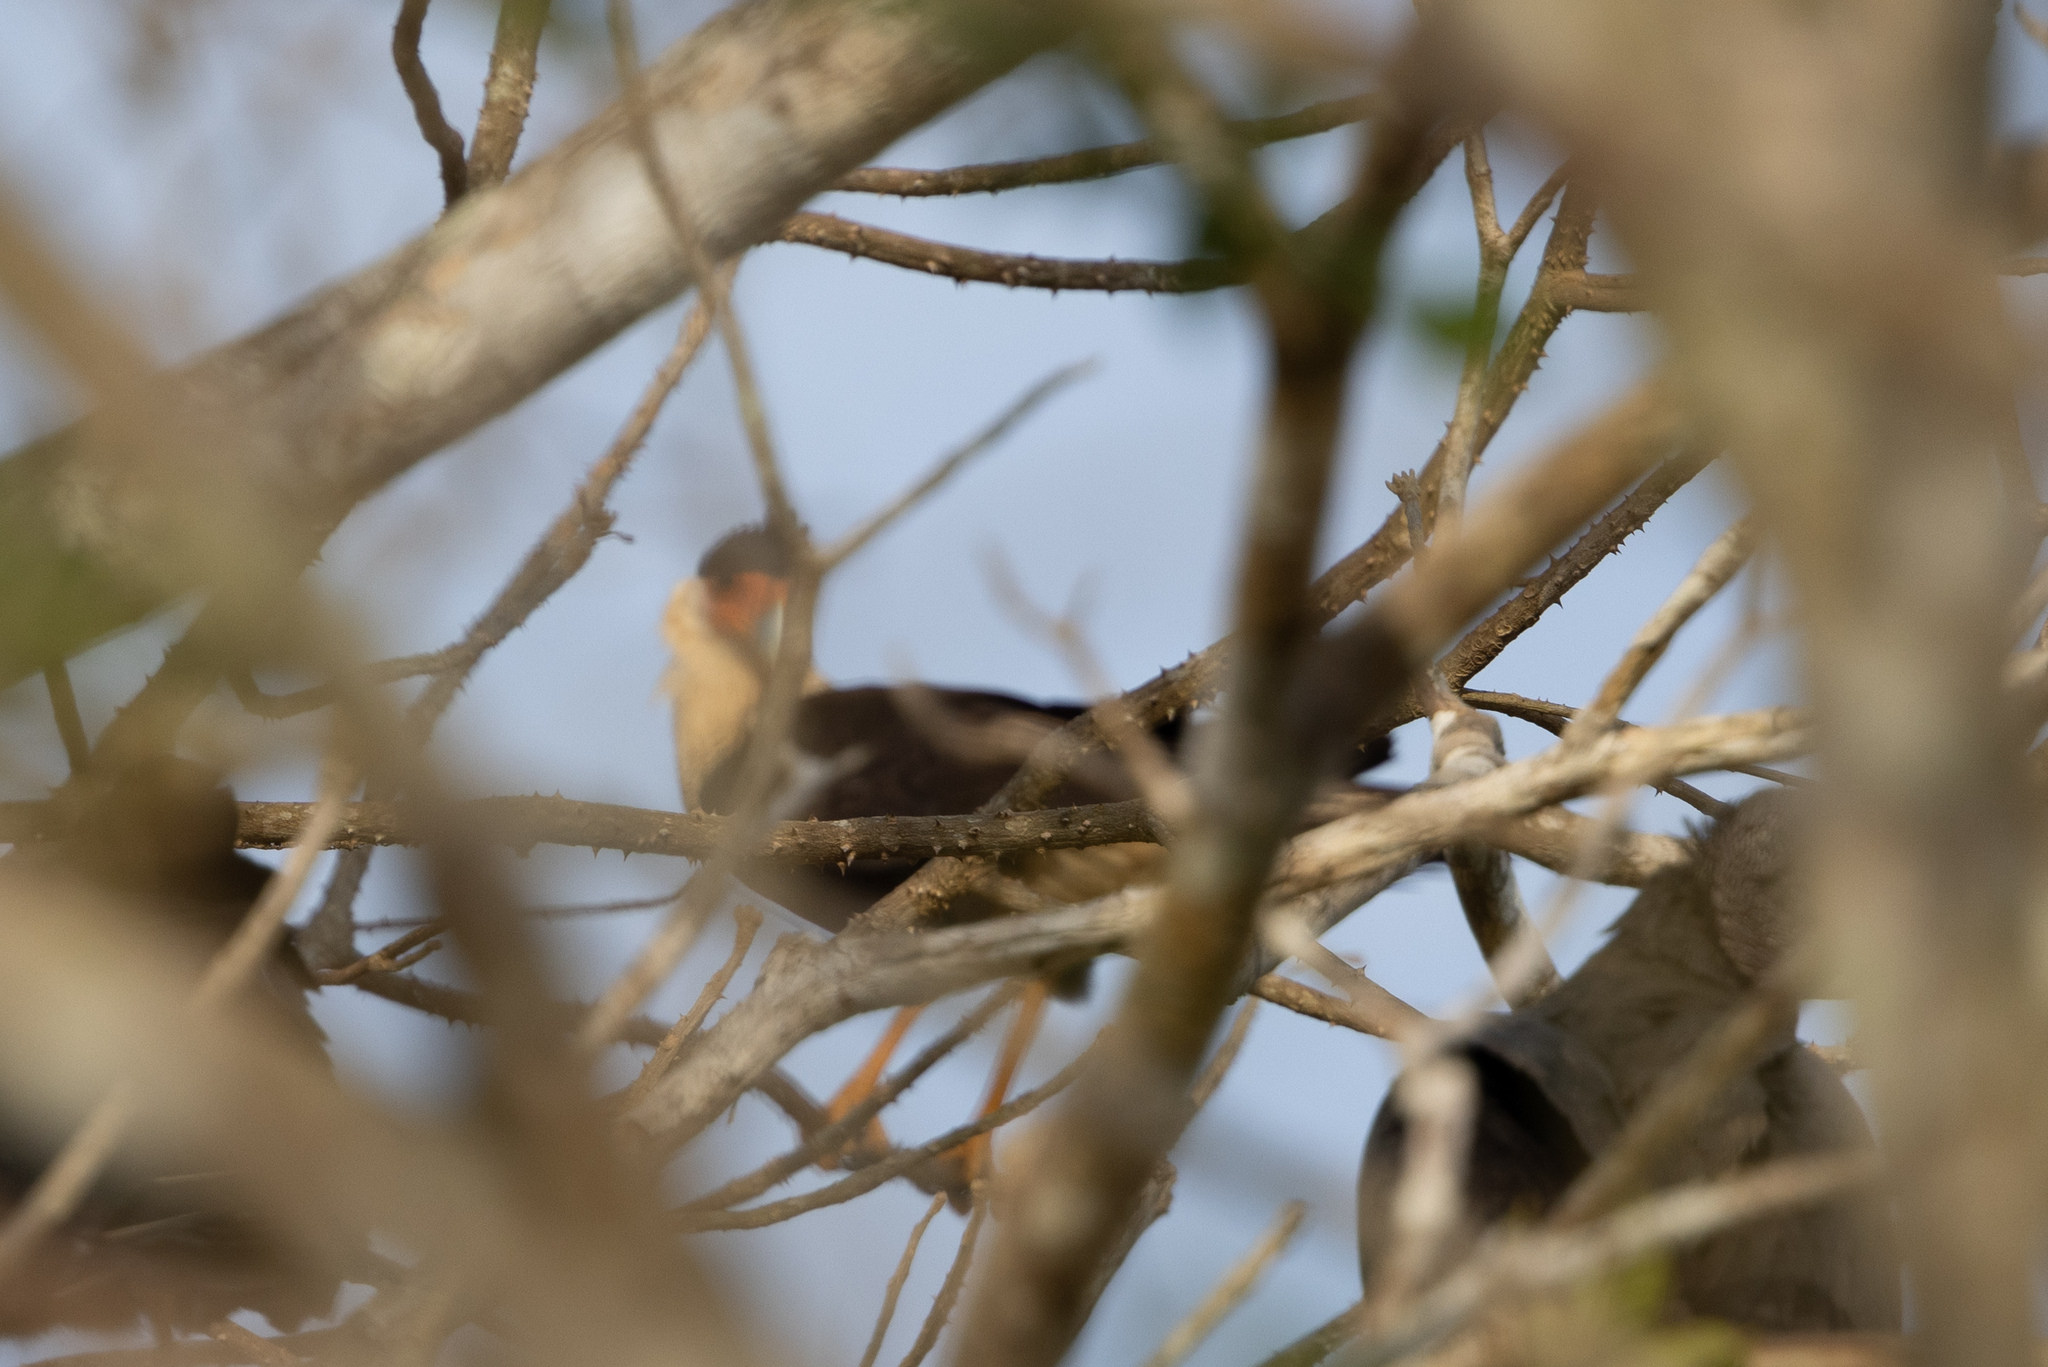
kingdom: Animalia
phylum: Chordata
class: Aves
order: Falconiformes
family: Falconidae
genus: Caracara
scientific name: Caracara plancus
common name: Southern caracara
